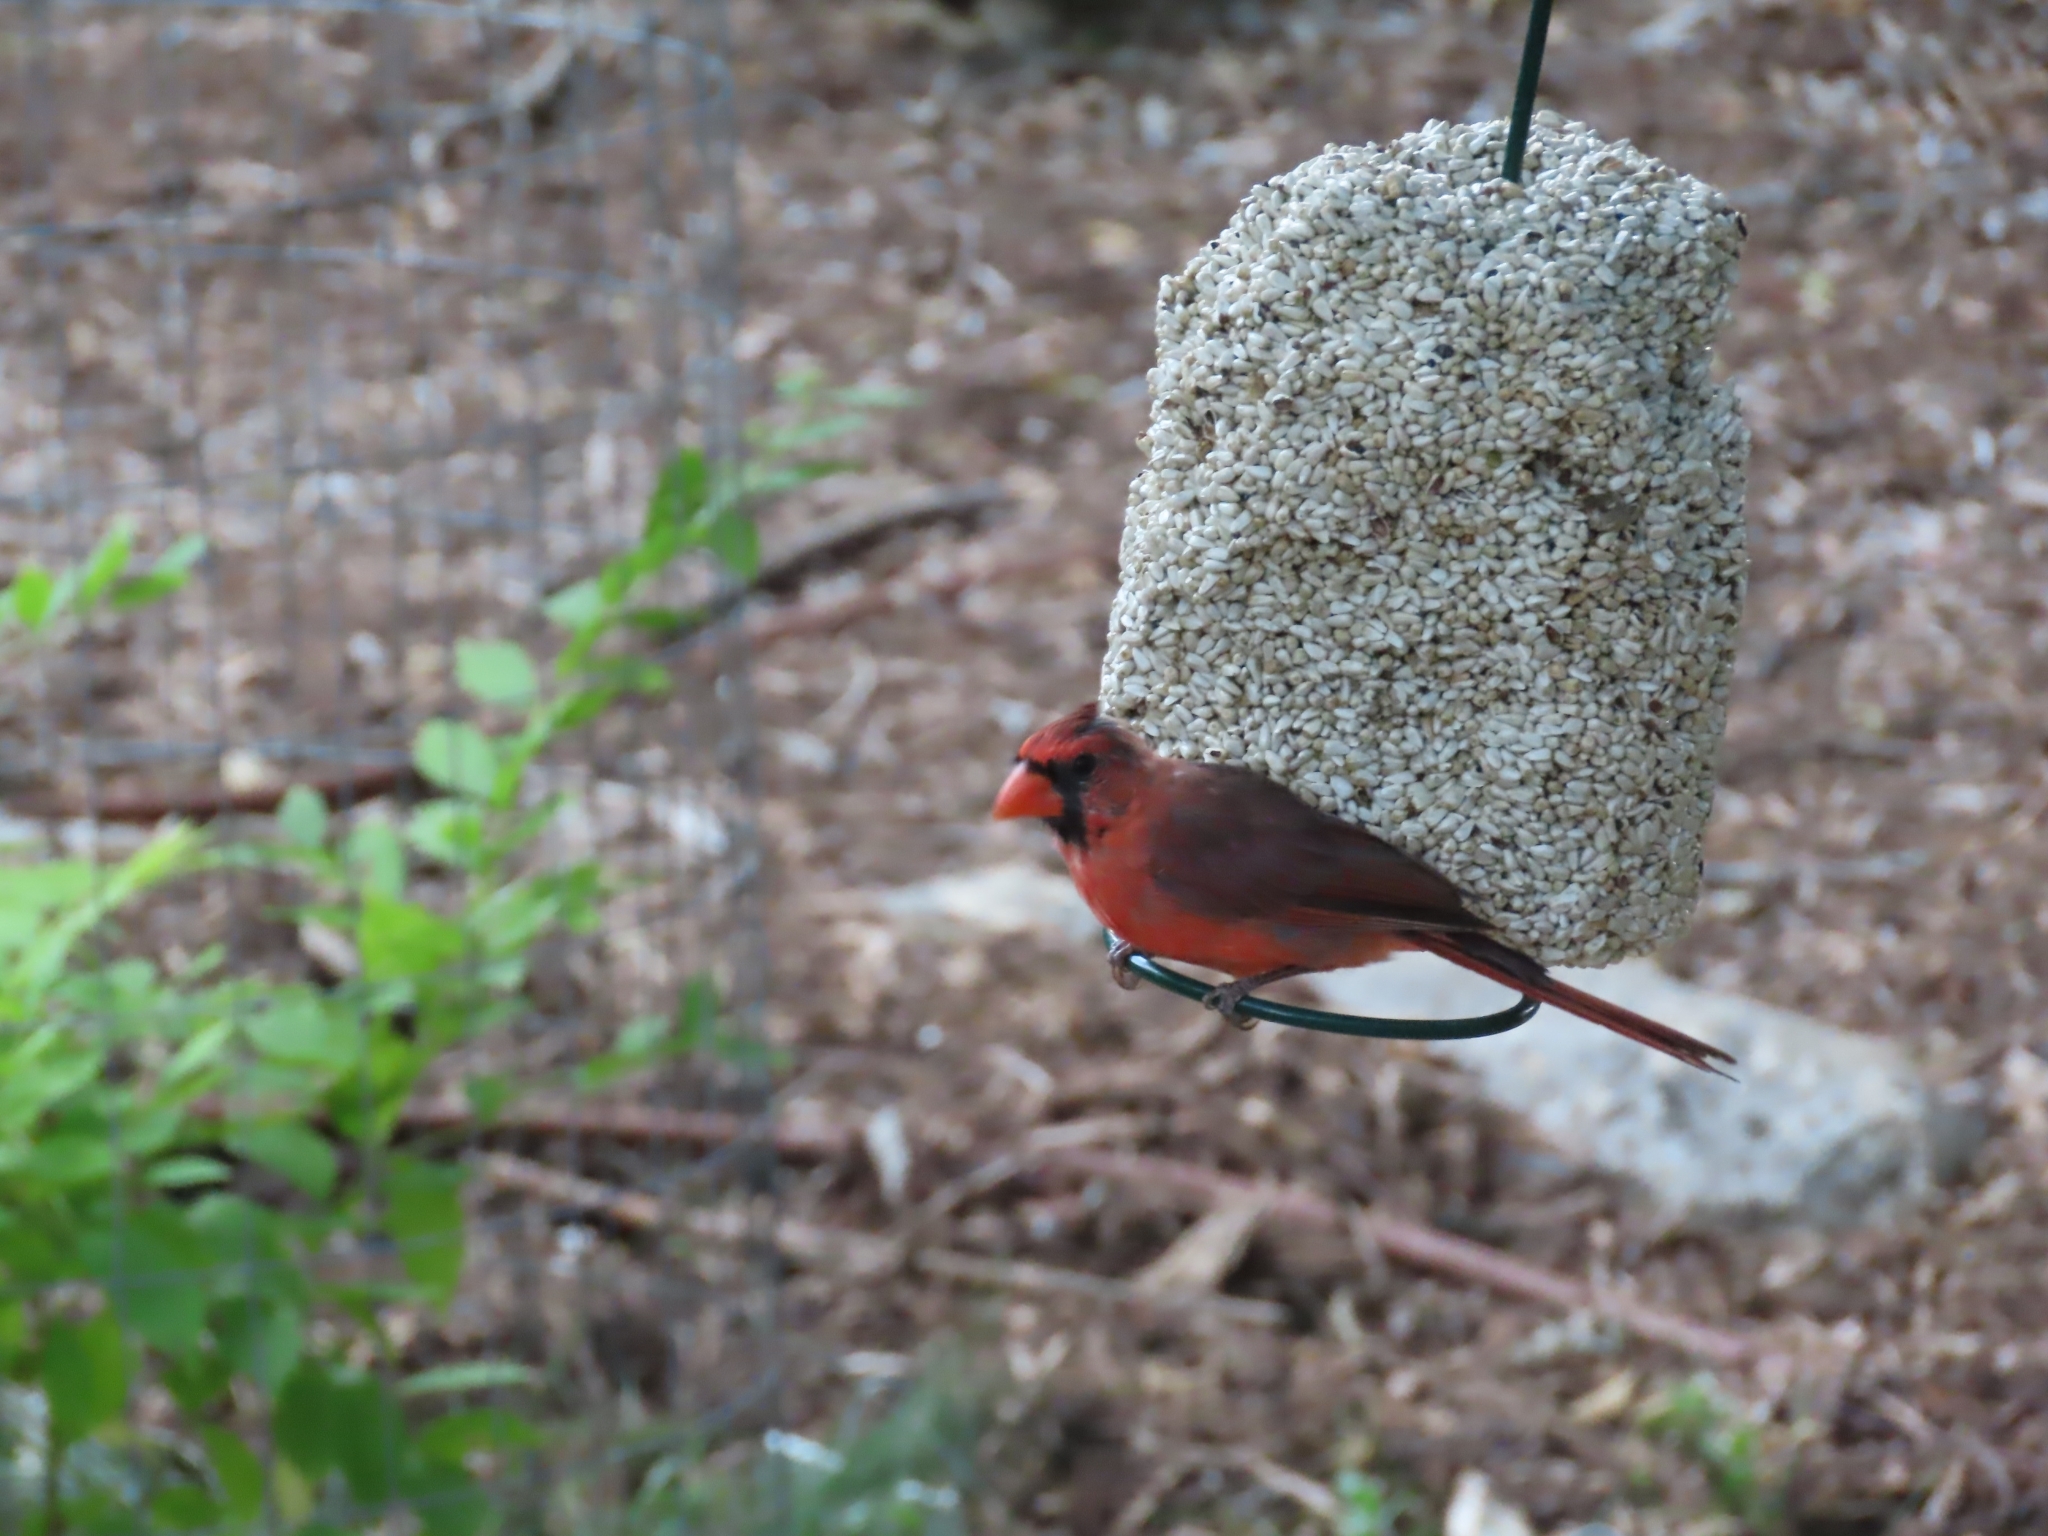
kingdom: Animalia
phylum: Chordata
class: Aves
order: Passeriformes
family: Cardinalidae
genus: Cardinalis
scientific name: Cardinalis cardinalis
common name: Northern cardinal
